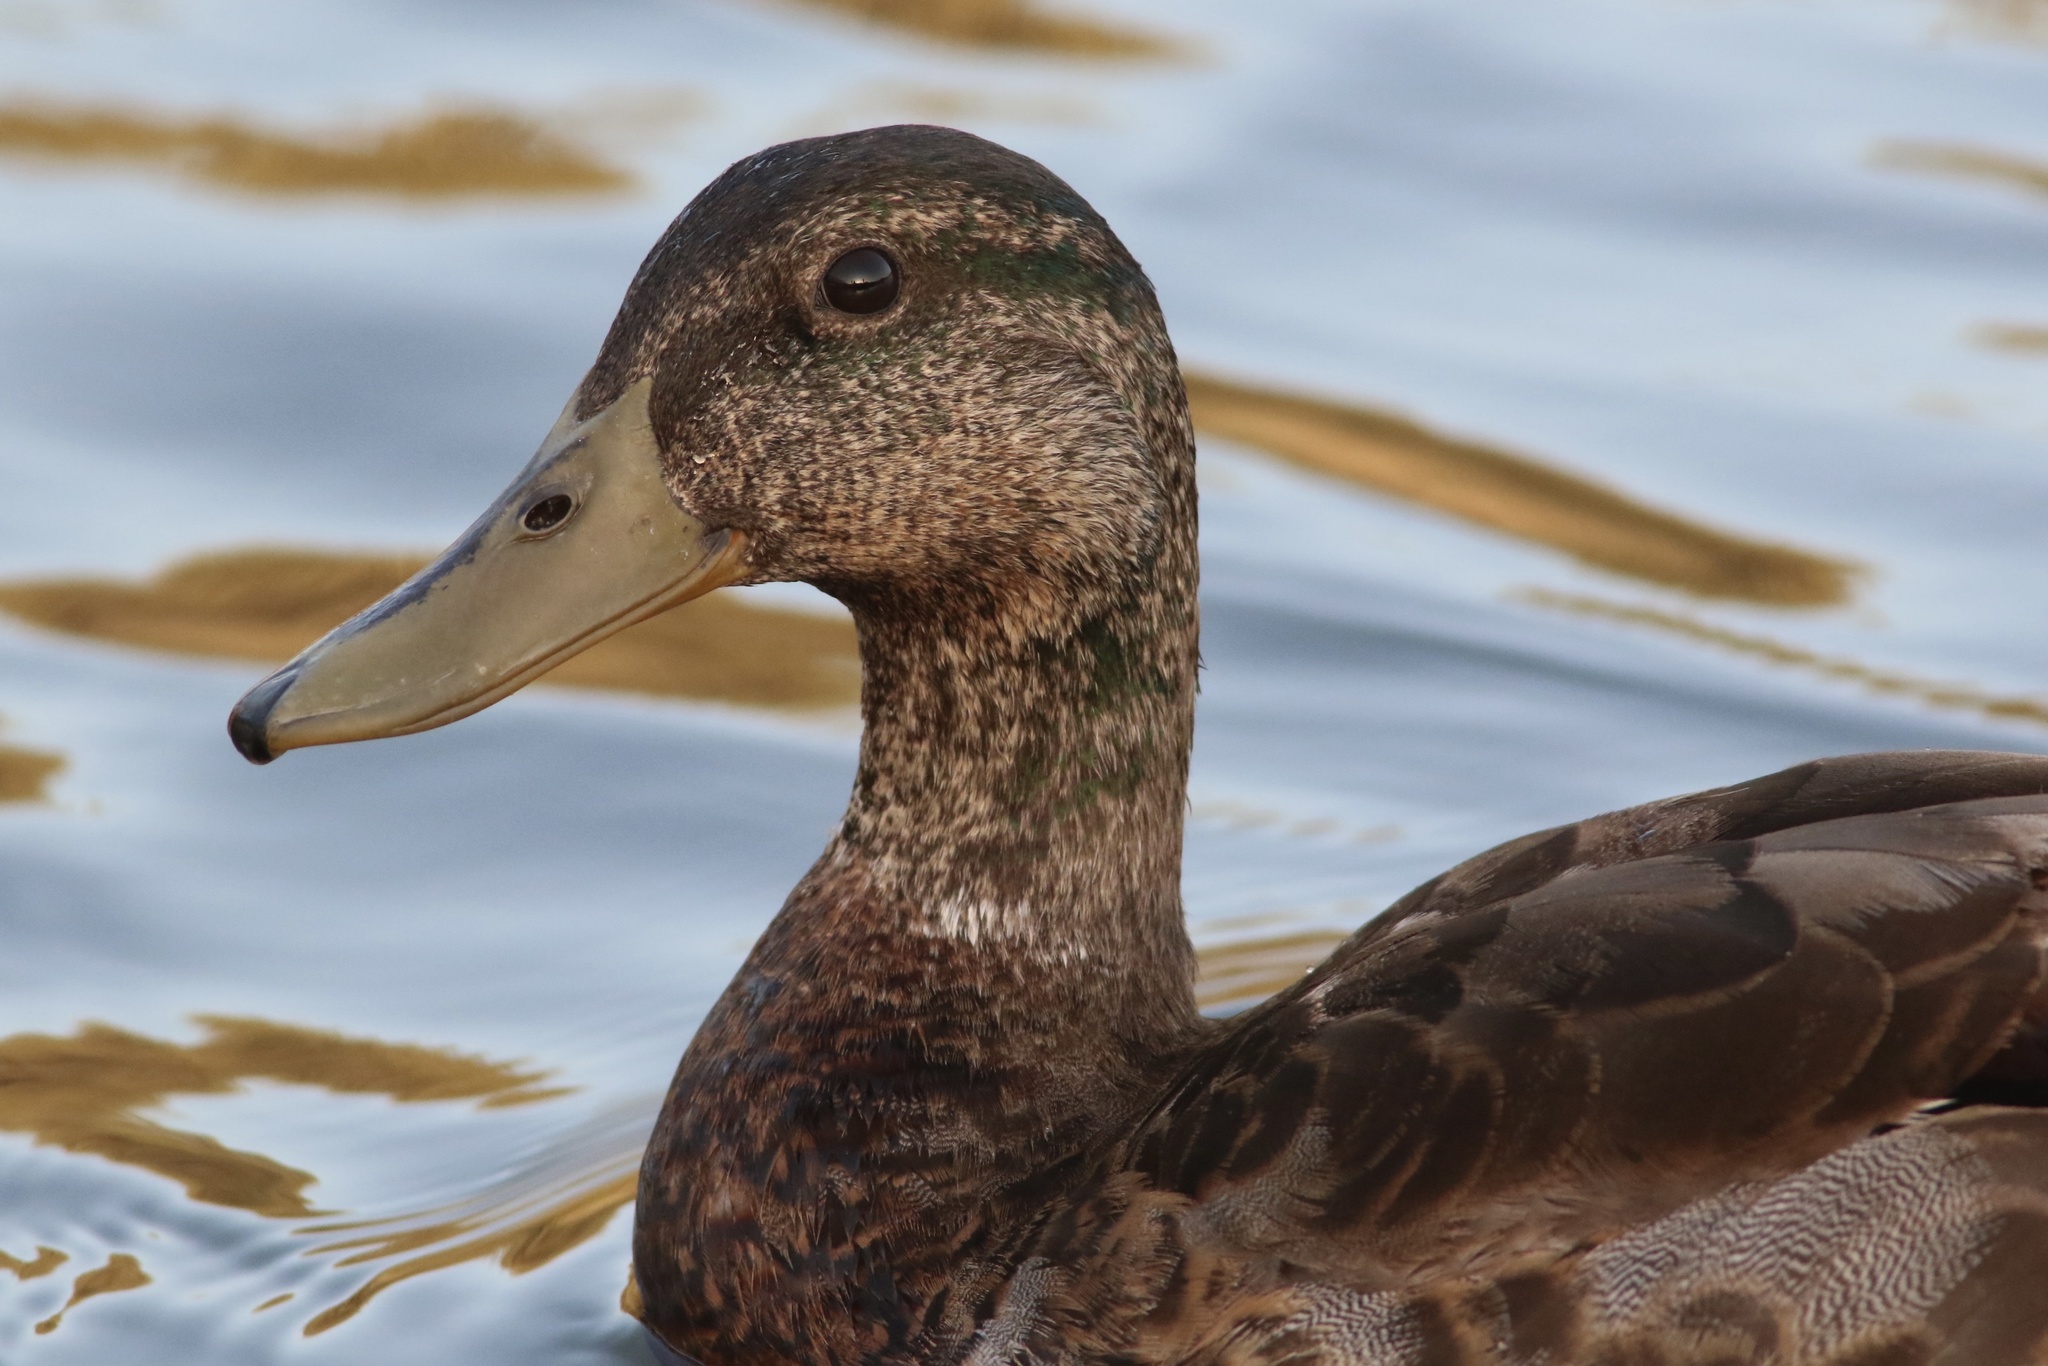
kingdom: Animalia
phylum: Chordata
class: Aves
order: Anseriformes
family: Anatidae
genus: Anas
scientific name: Anas platyrhynchos
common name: Mallard
